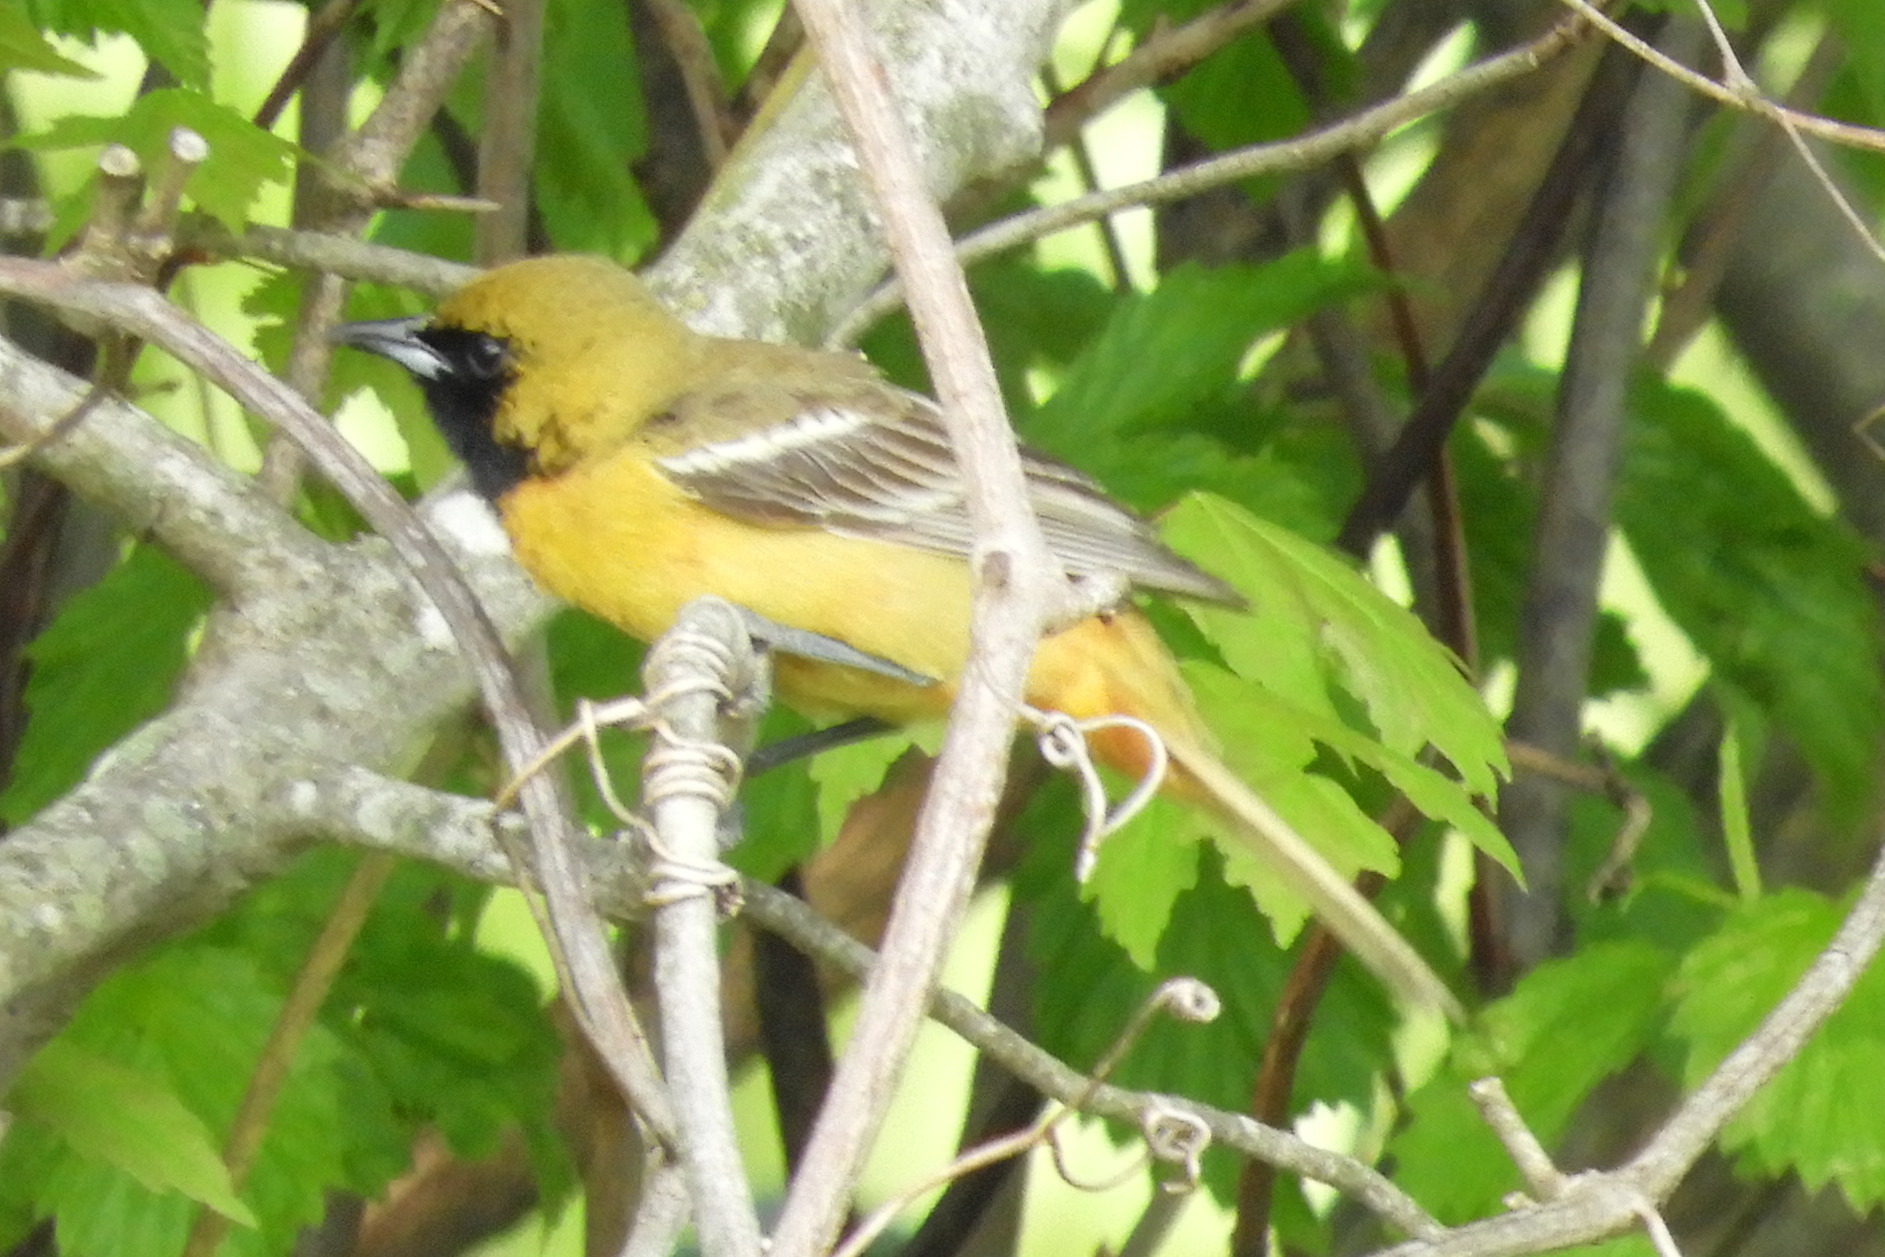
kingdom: Animalia
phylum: Chordata
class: Aves
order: Passeriformes
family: Icteridae
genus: Icterus
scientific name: Icterus spurius
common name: Orchard oriole
